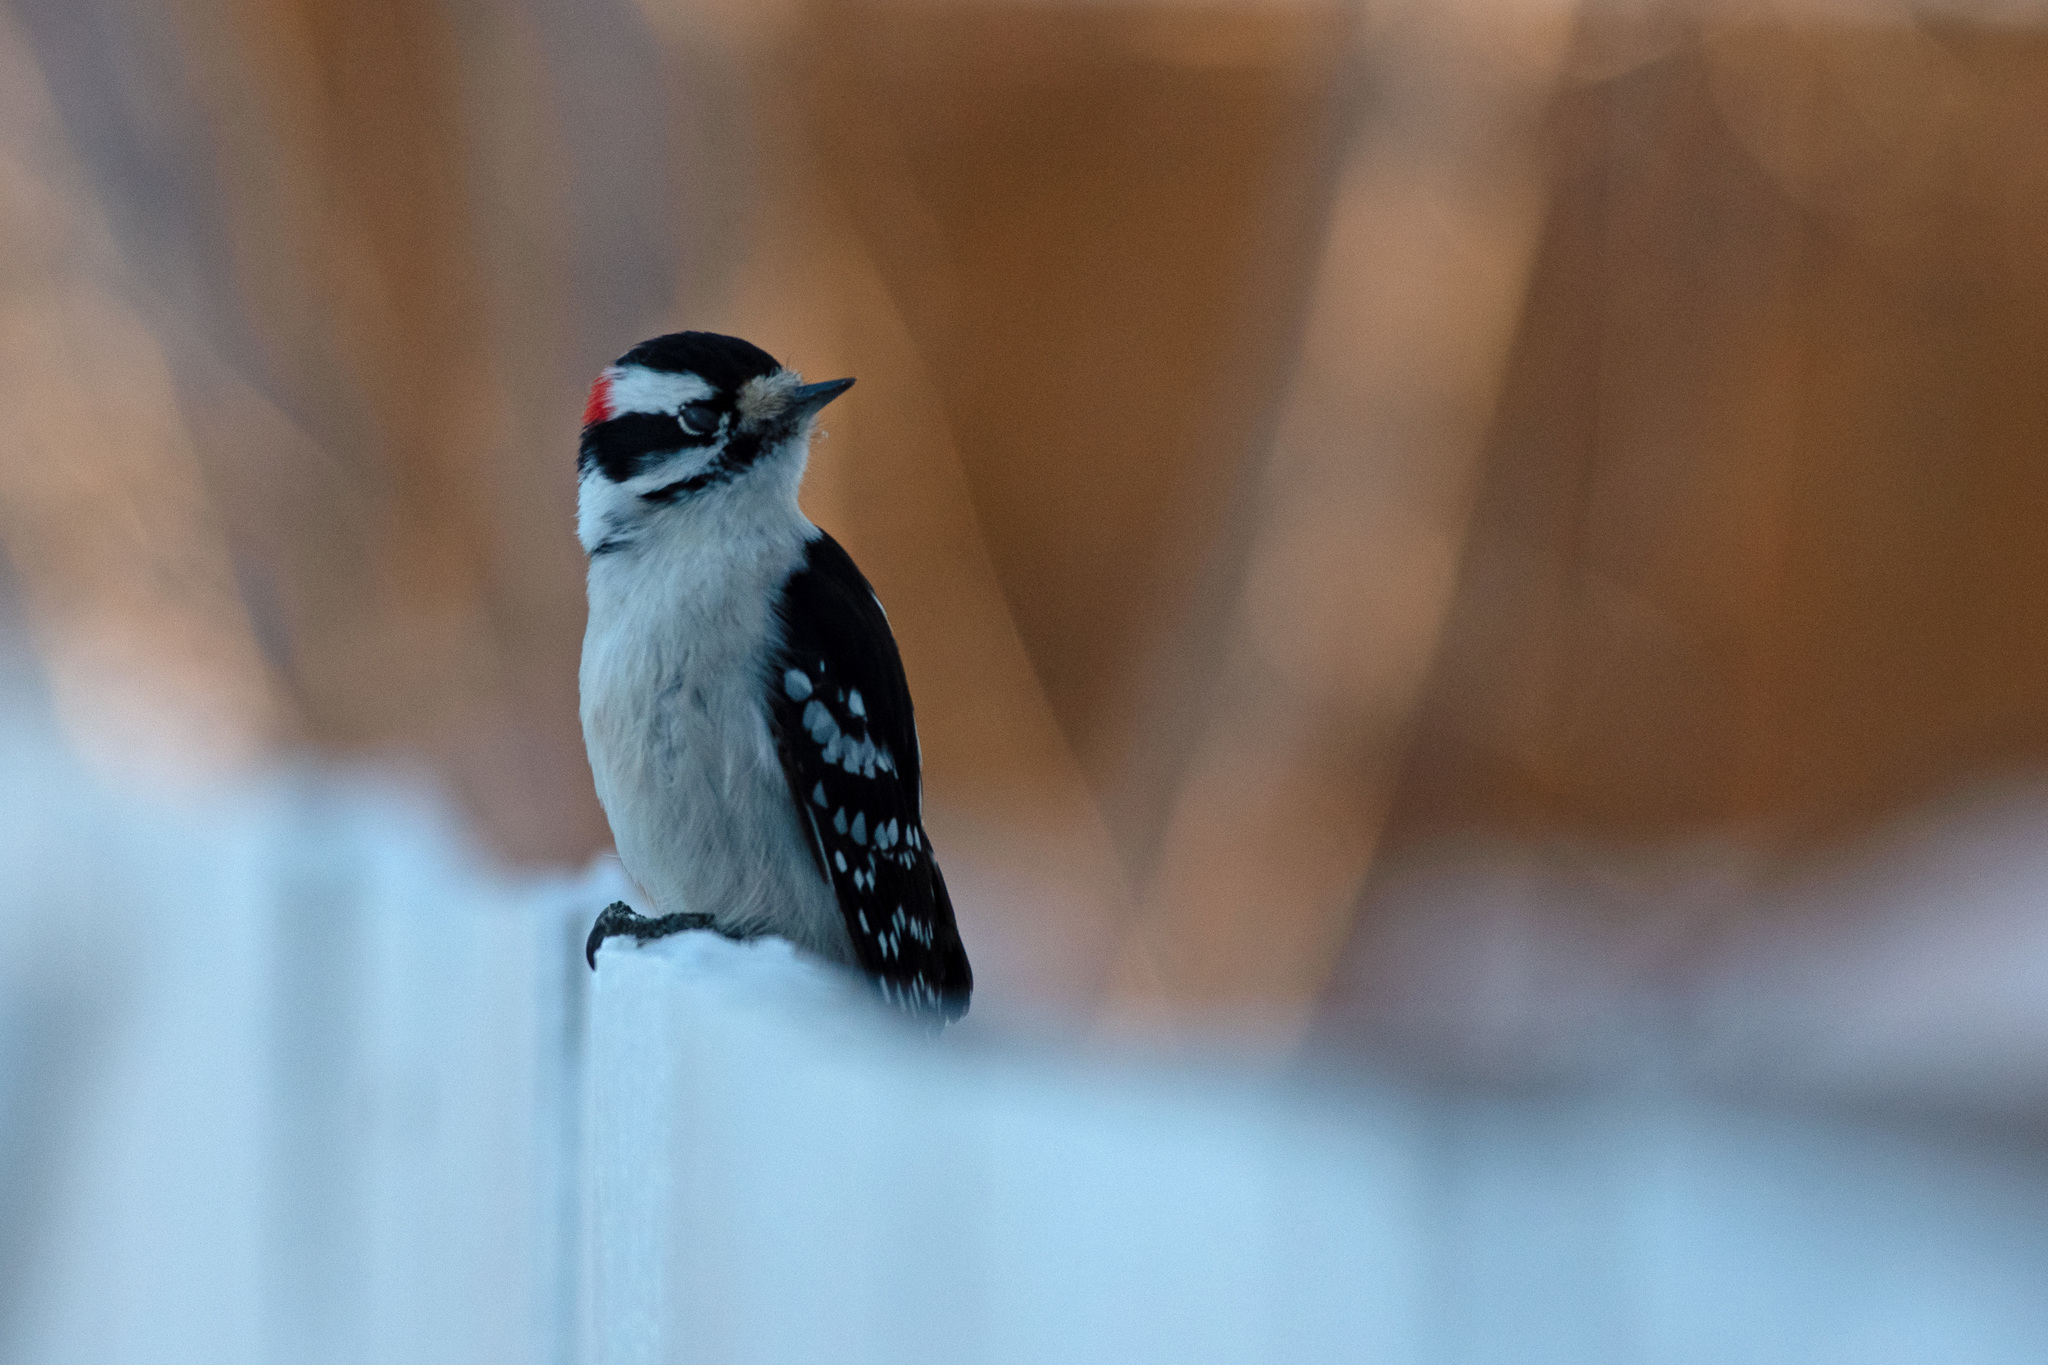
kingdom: Animalia
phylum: Chordata
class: Aves
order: Piciformes
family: Picidae
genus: Dryobates
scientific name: Dryobates pubescens
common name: Downy woodpecker
